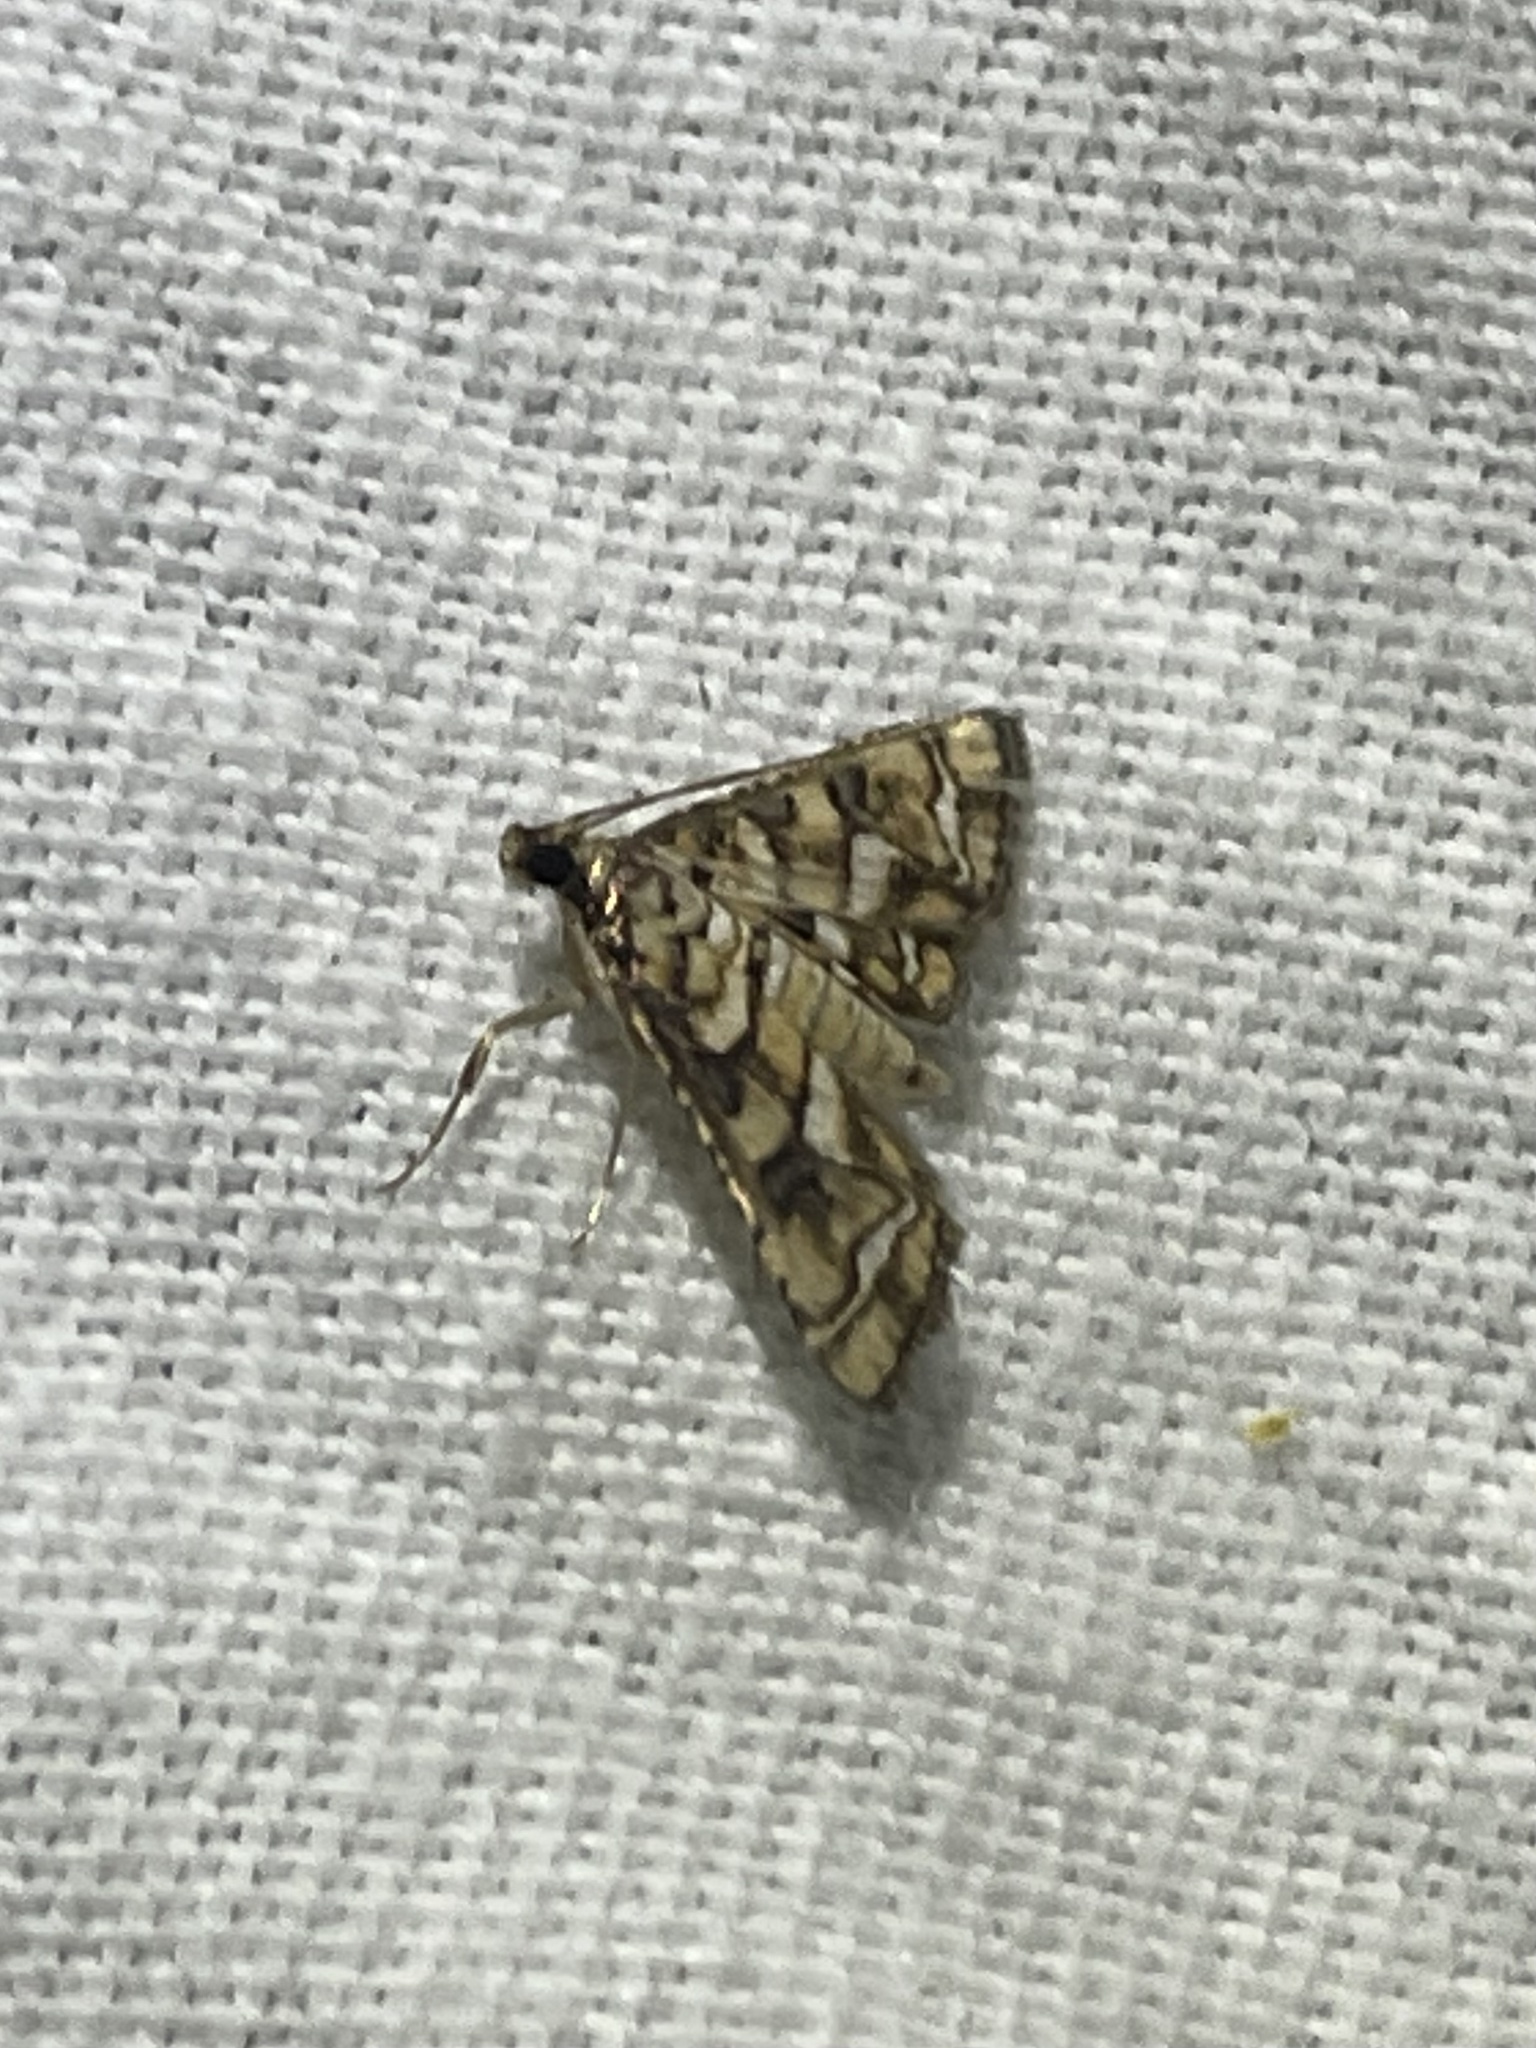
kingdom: Animalia
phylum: Arthropoda
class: Insecta
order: Lepidoptera
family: Crambidae
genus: Hileithia
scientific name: Hileithia magualis
